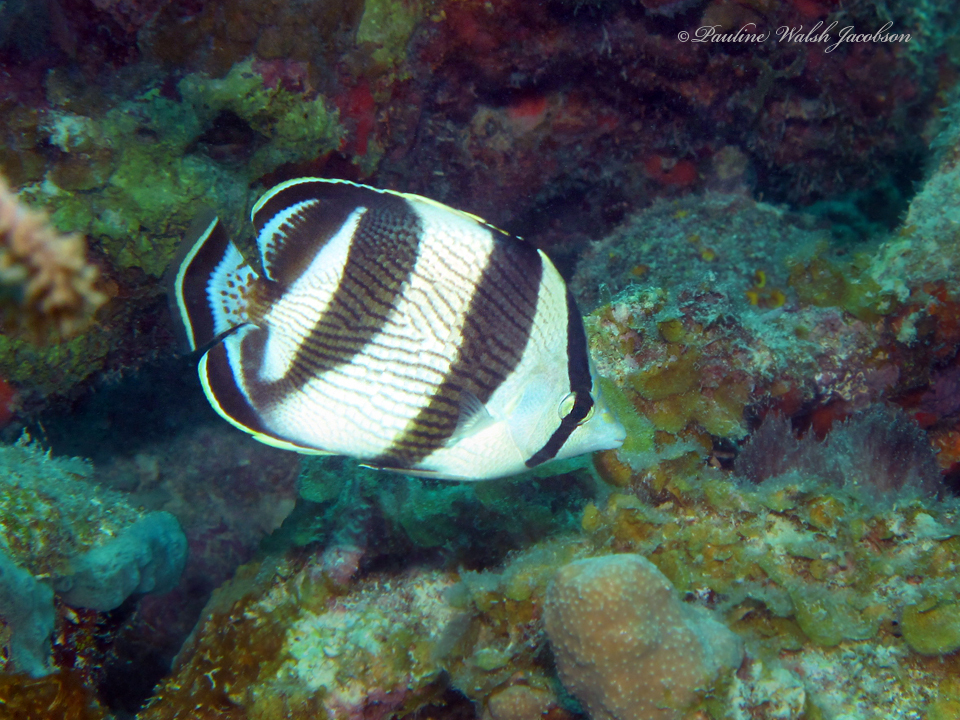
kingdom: Animalia
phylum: Chordata
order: Perciformes
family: Chaetodontidae
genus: Chaetodon
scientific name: Chaetodon striatus
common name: Banded butterflyfish
